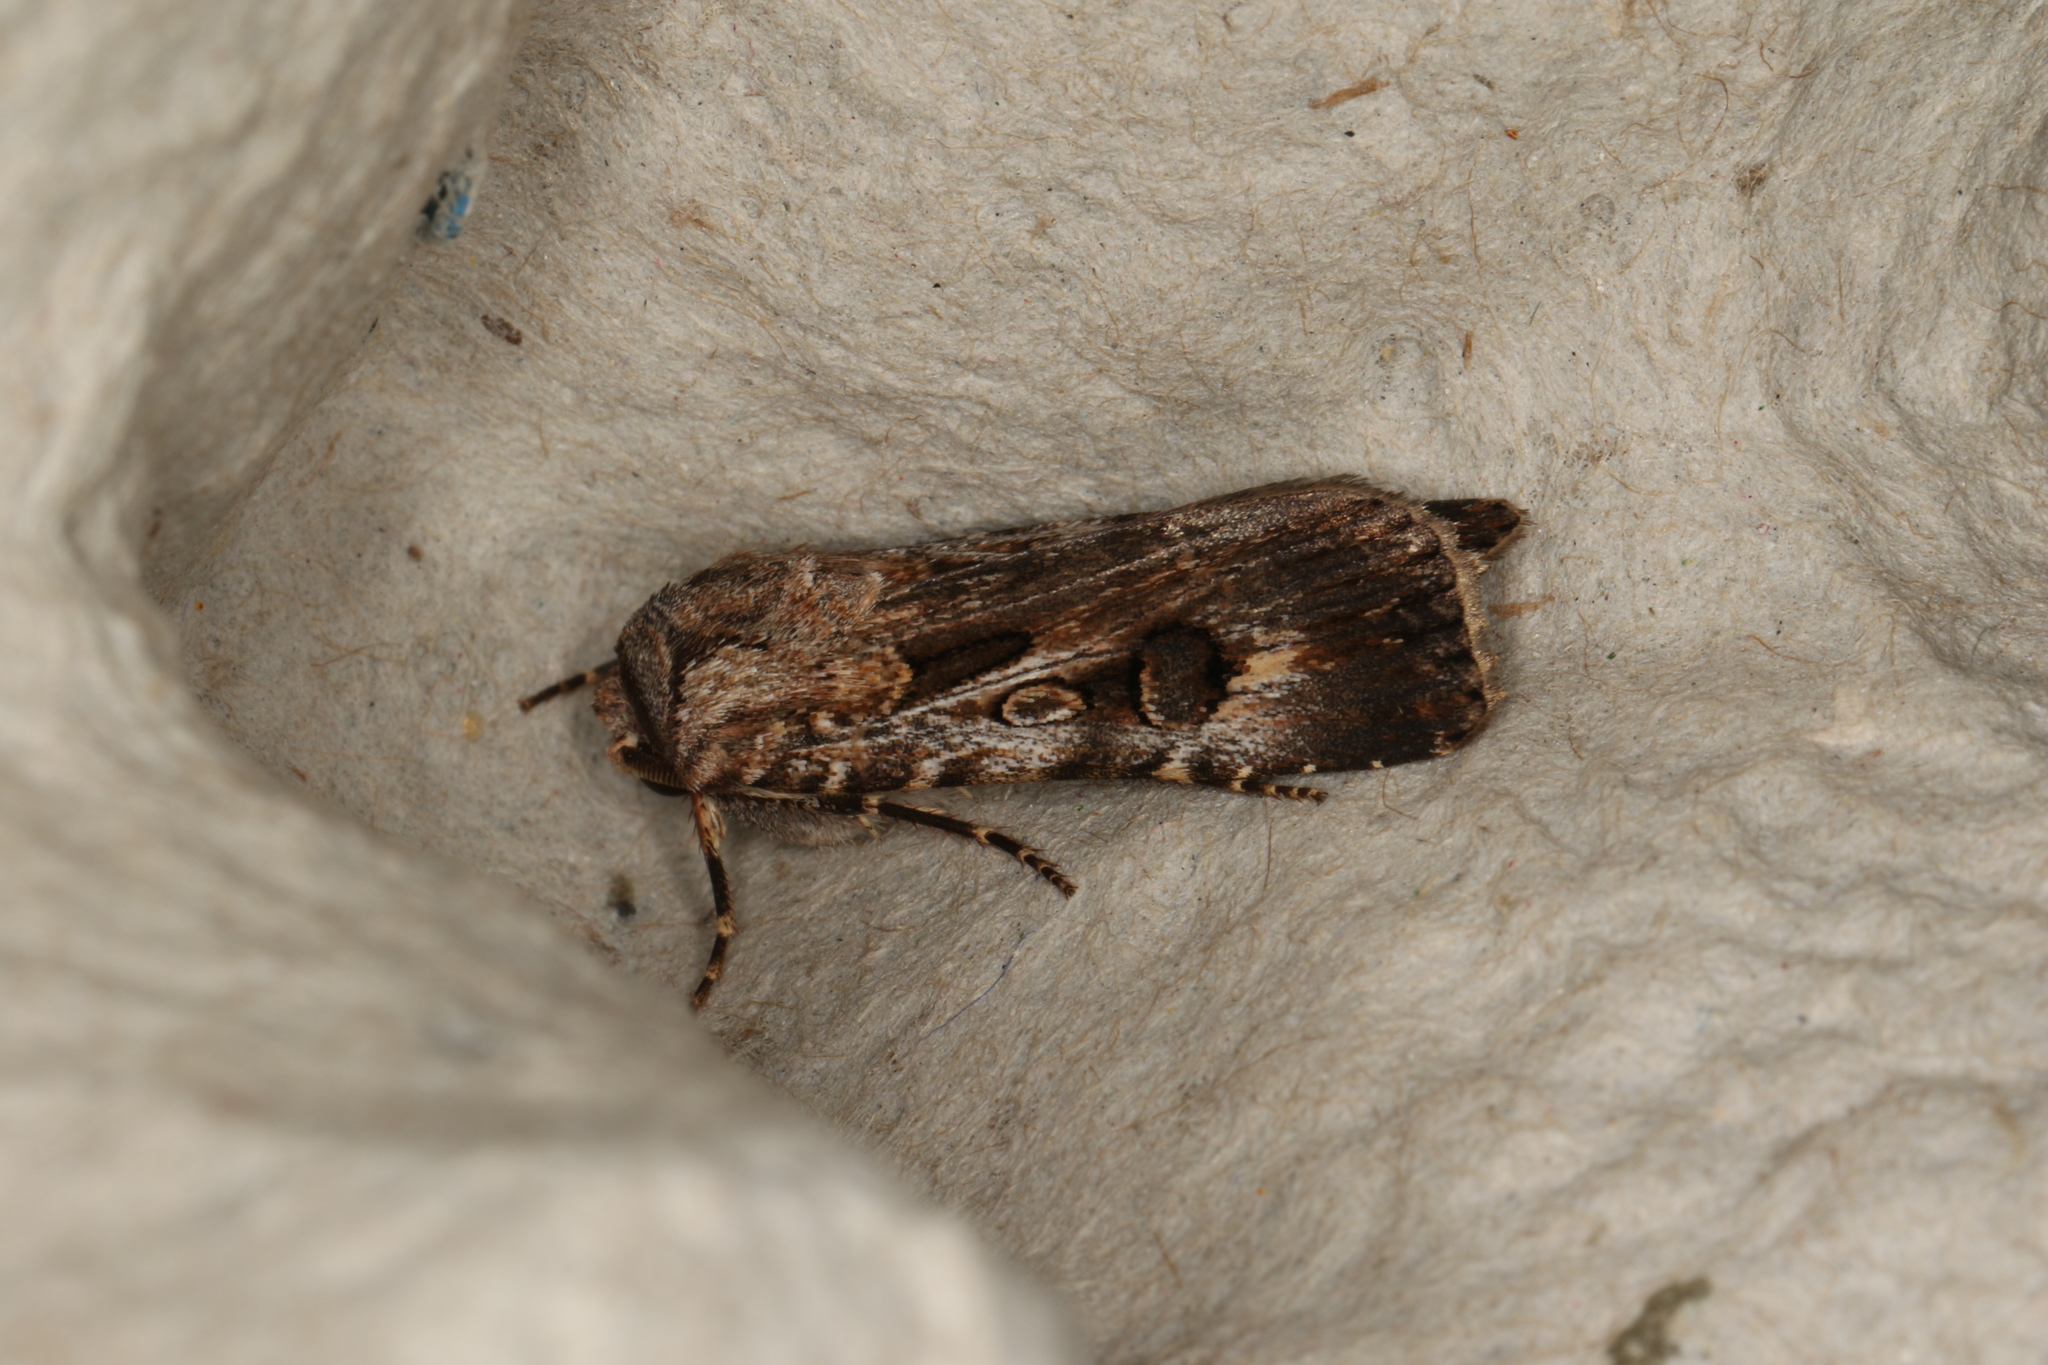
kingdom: Animalia
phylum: Arthropoda
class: Insecta
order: Lepidoptera
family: Noctuidae
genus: Agrotis
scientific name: Agrotis munda
